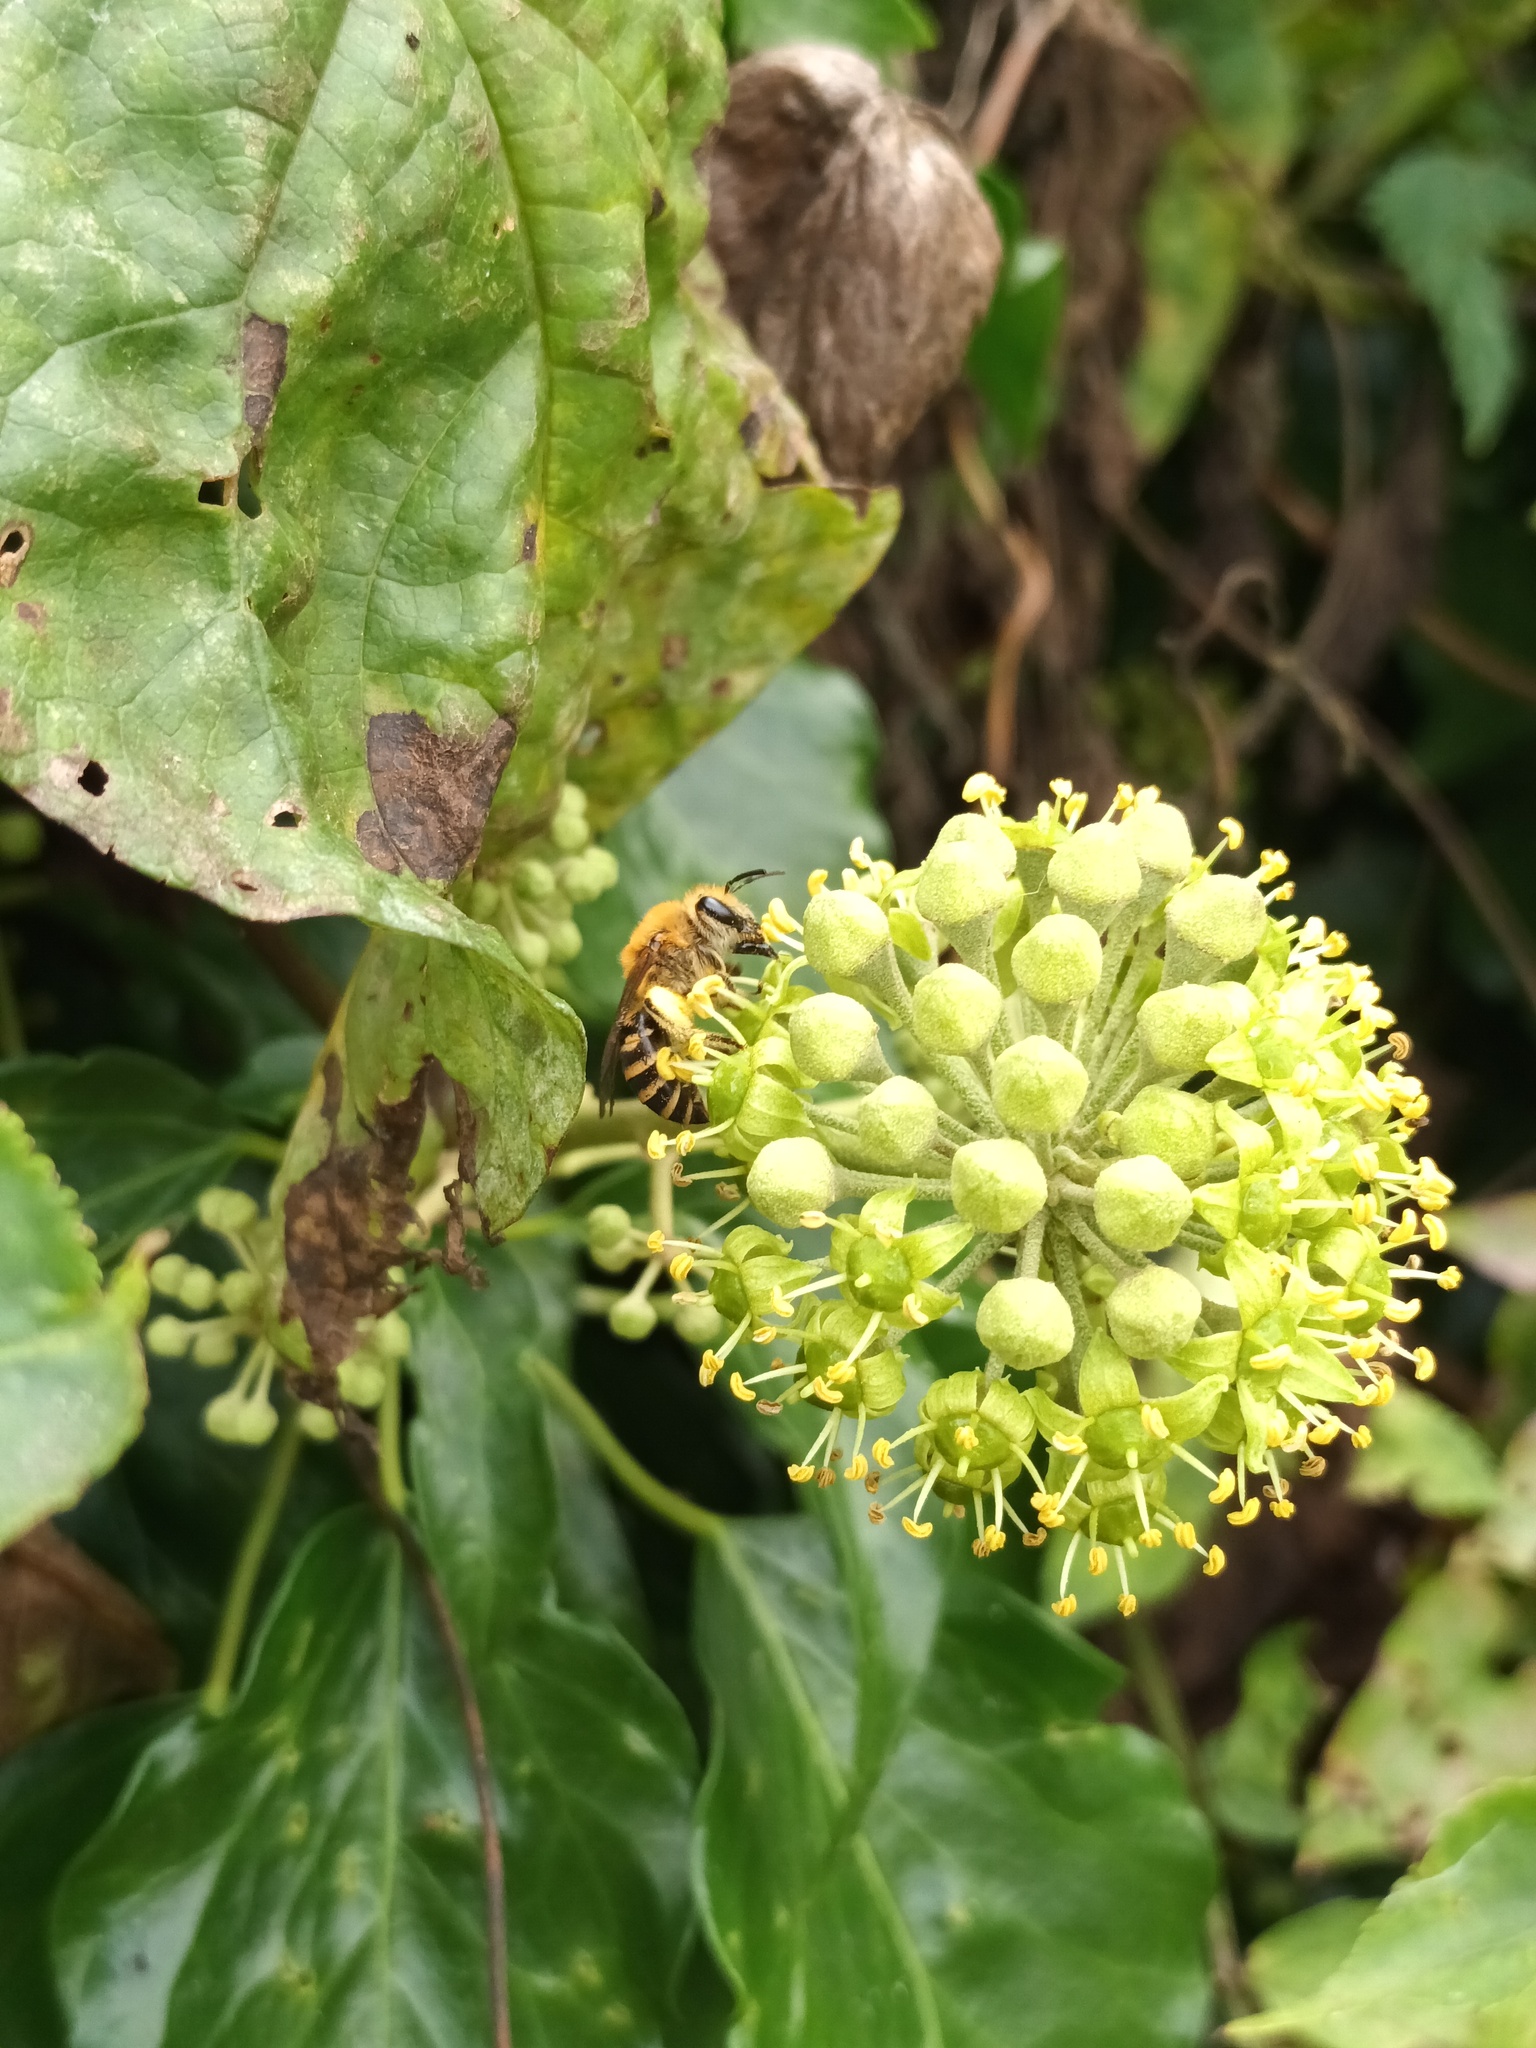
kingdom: Animalia
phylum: Arthropoda
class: Insecta
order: Hymenoptera
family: Colletidae
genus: Colletes
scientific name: Colletes hederae
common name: Ivy bee
